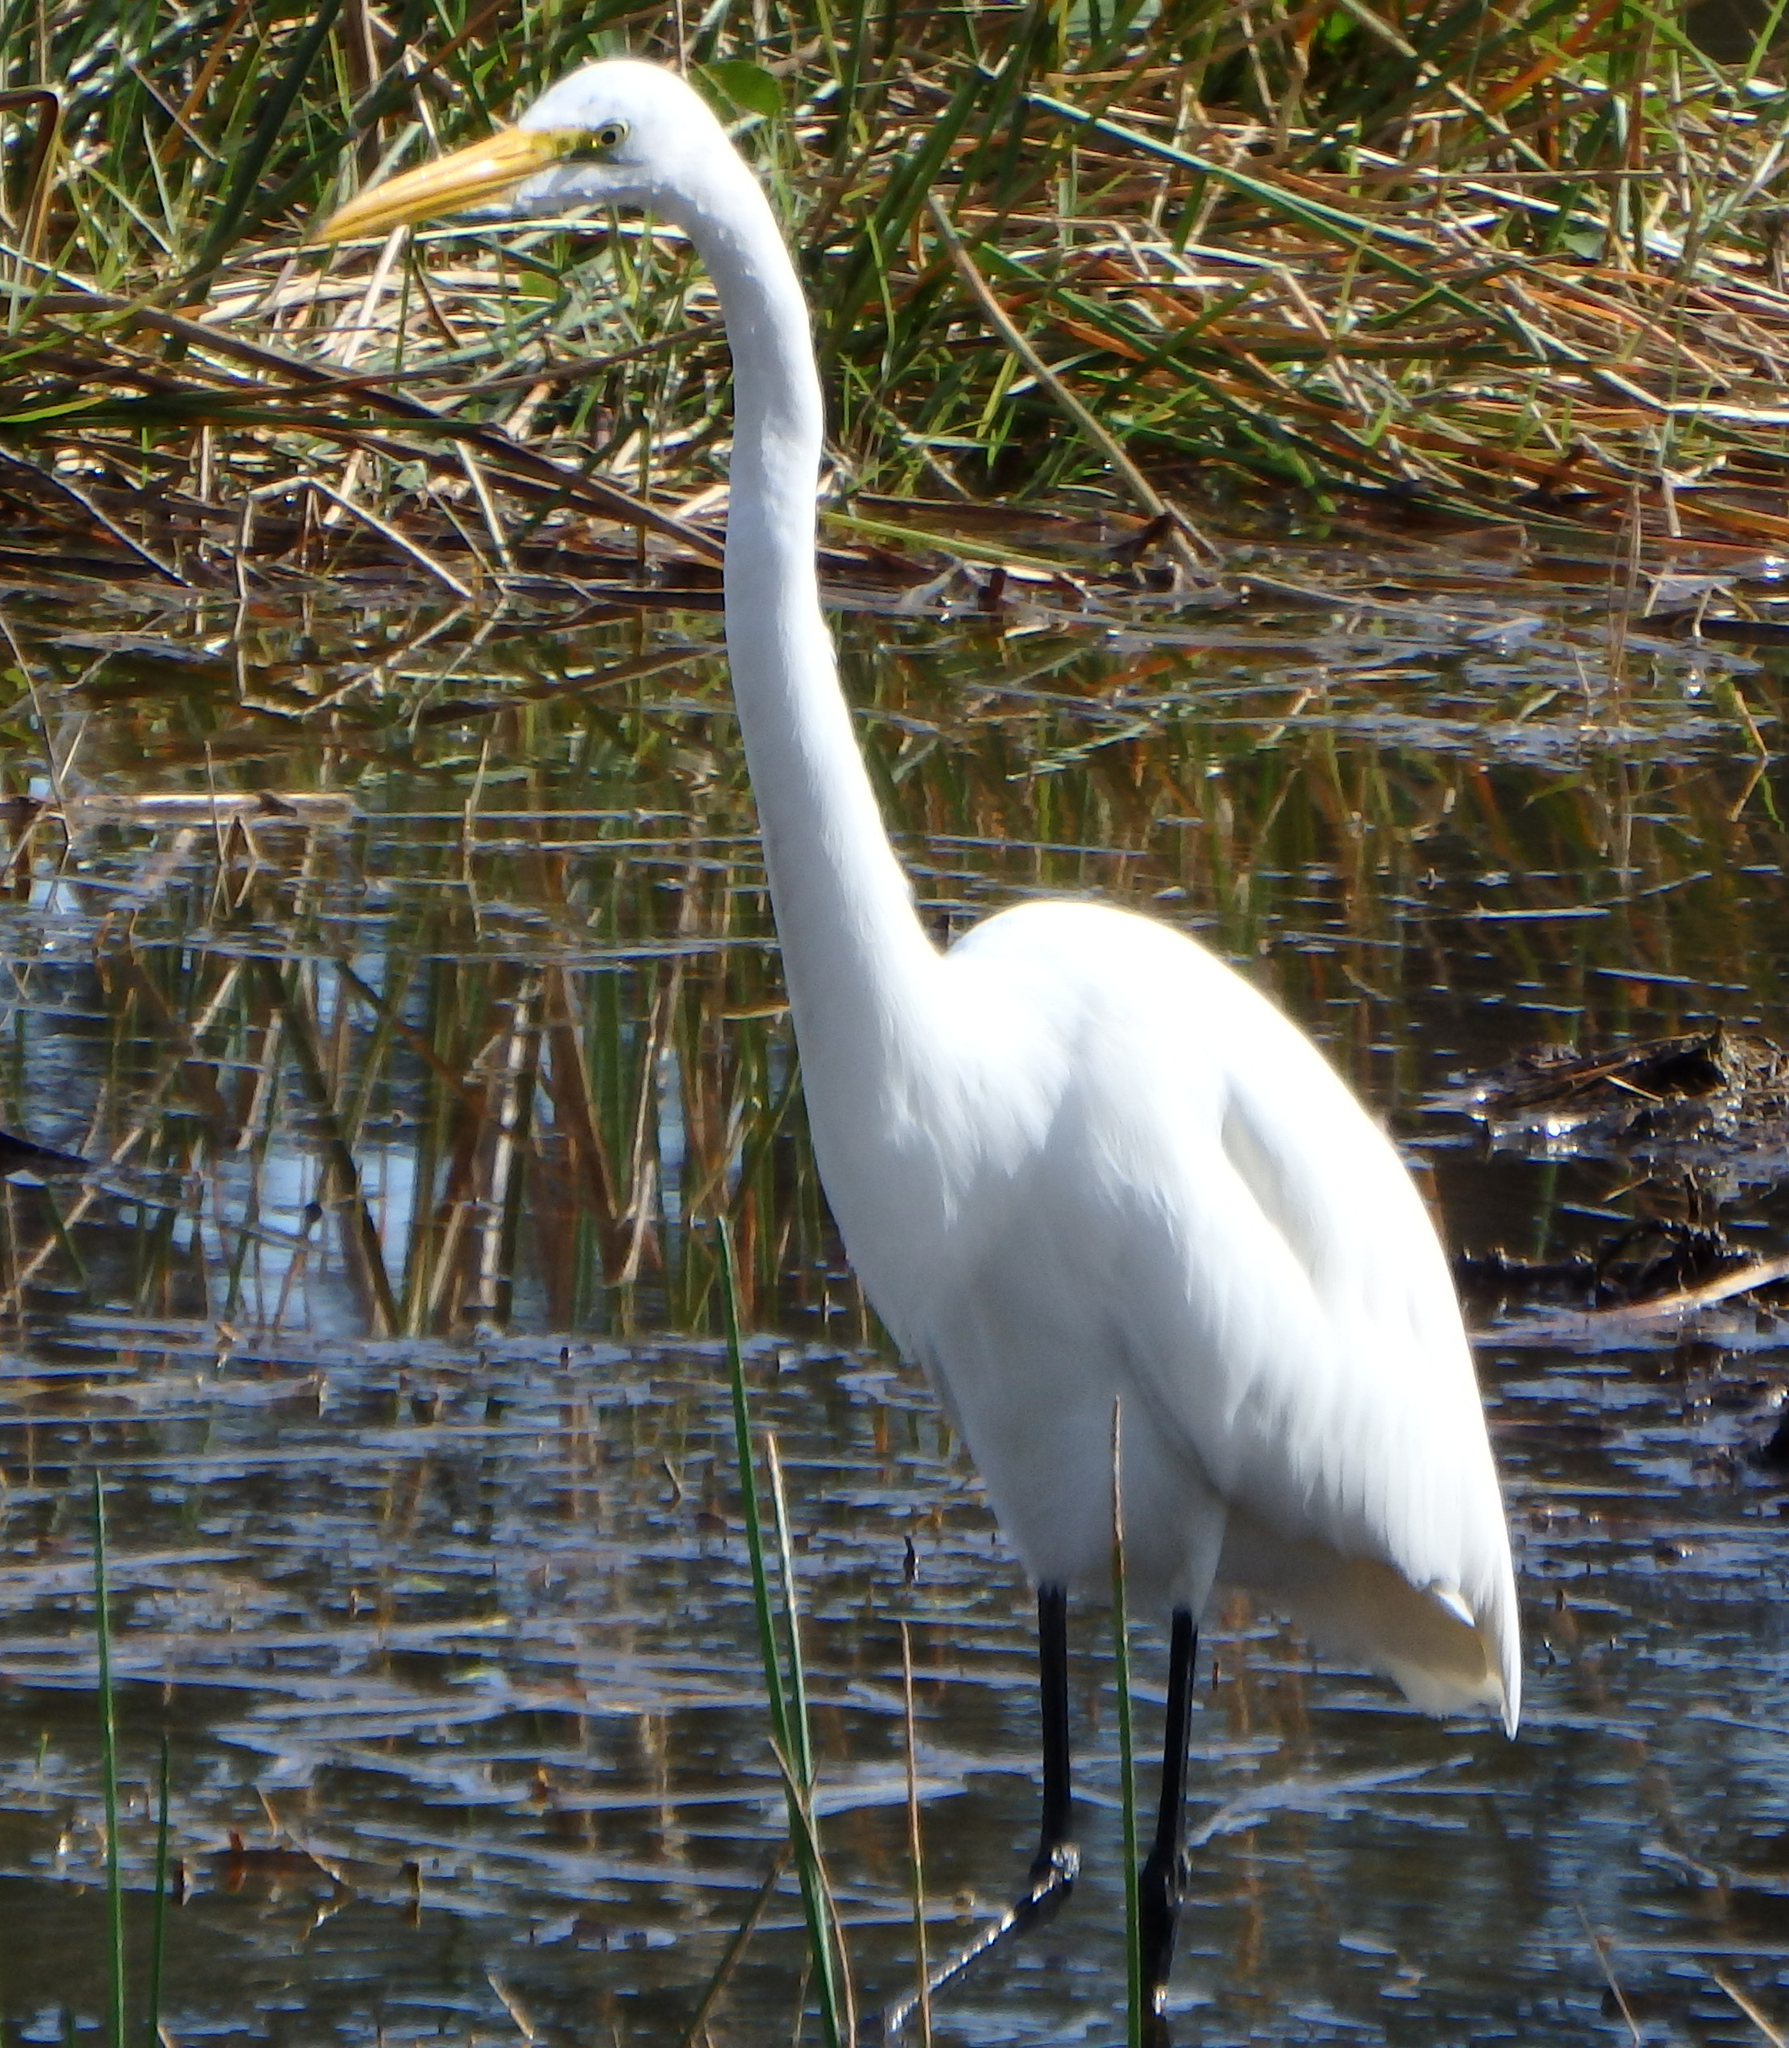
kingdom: Animalia
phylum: Chordata
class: Aves
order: Pelecaniformes
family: Ardeidae
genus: Ardea
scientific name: Ardea alba
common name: Great egret
